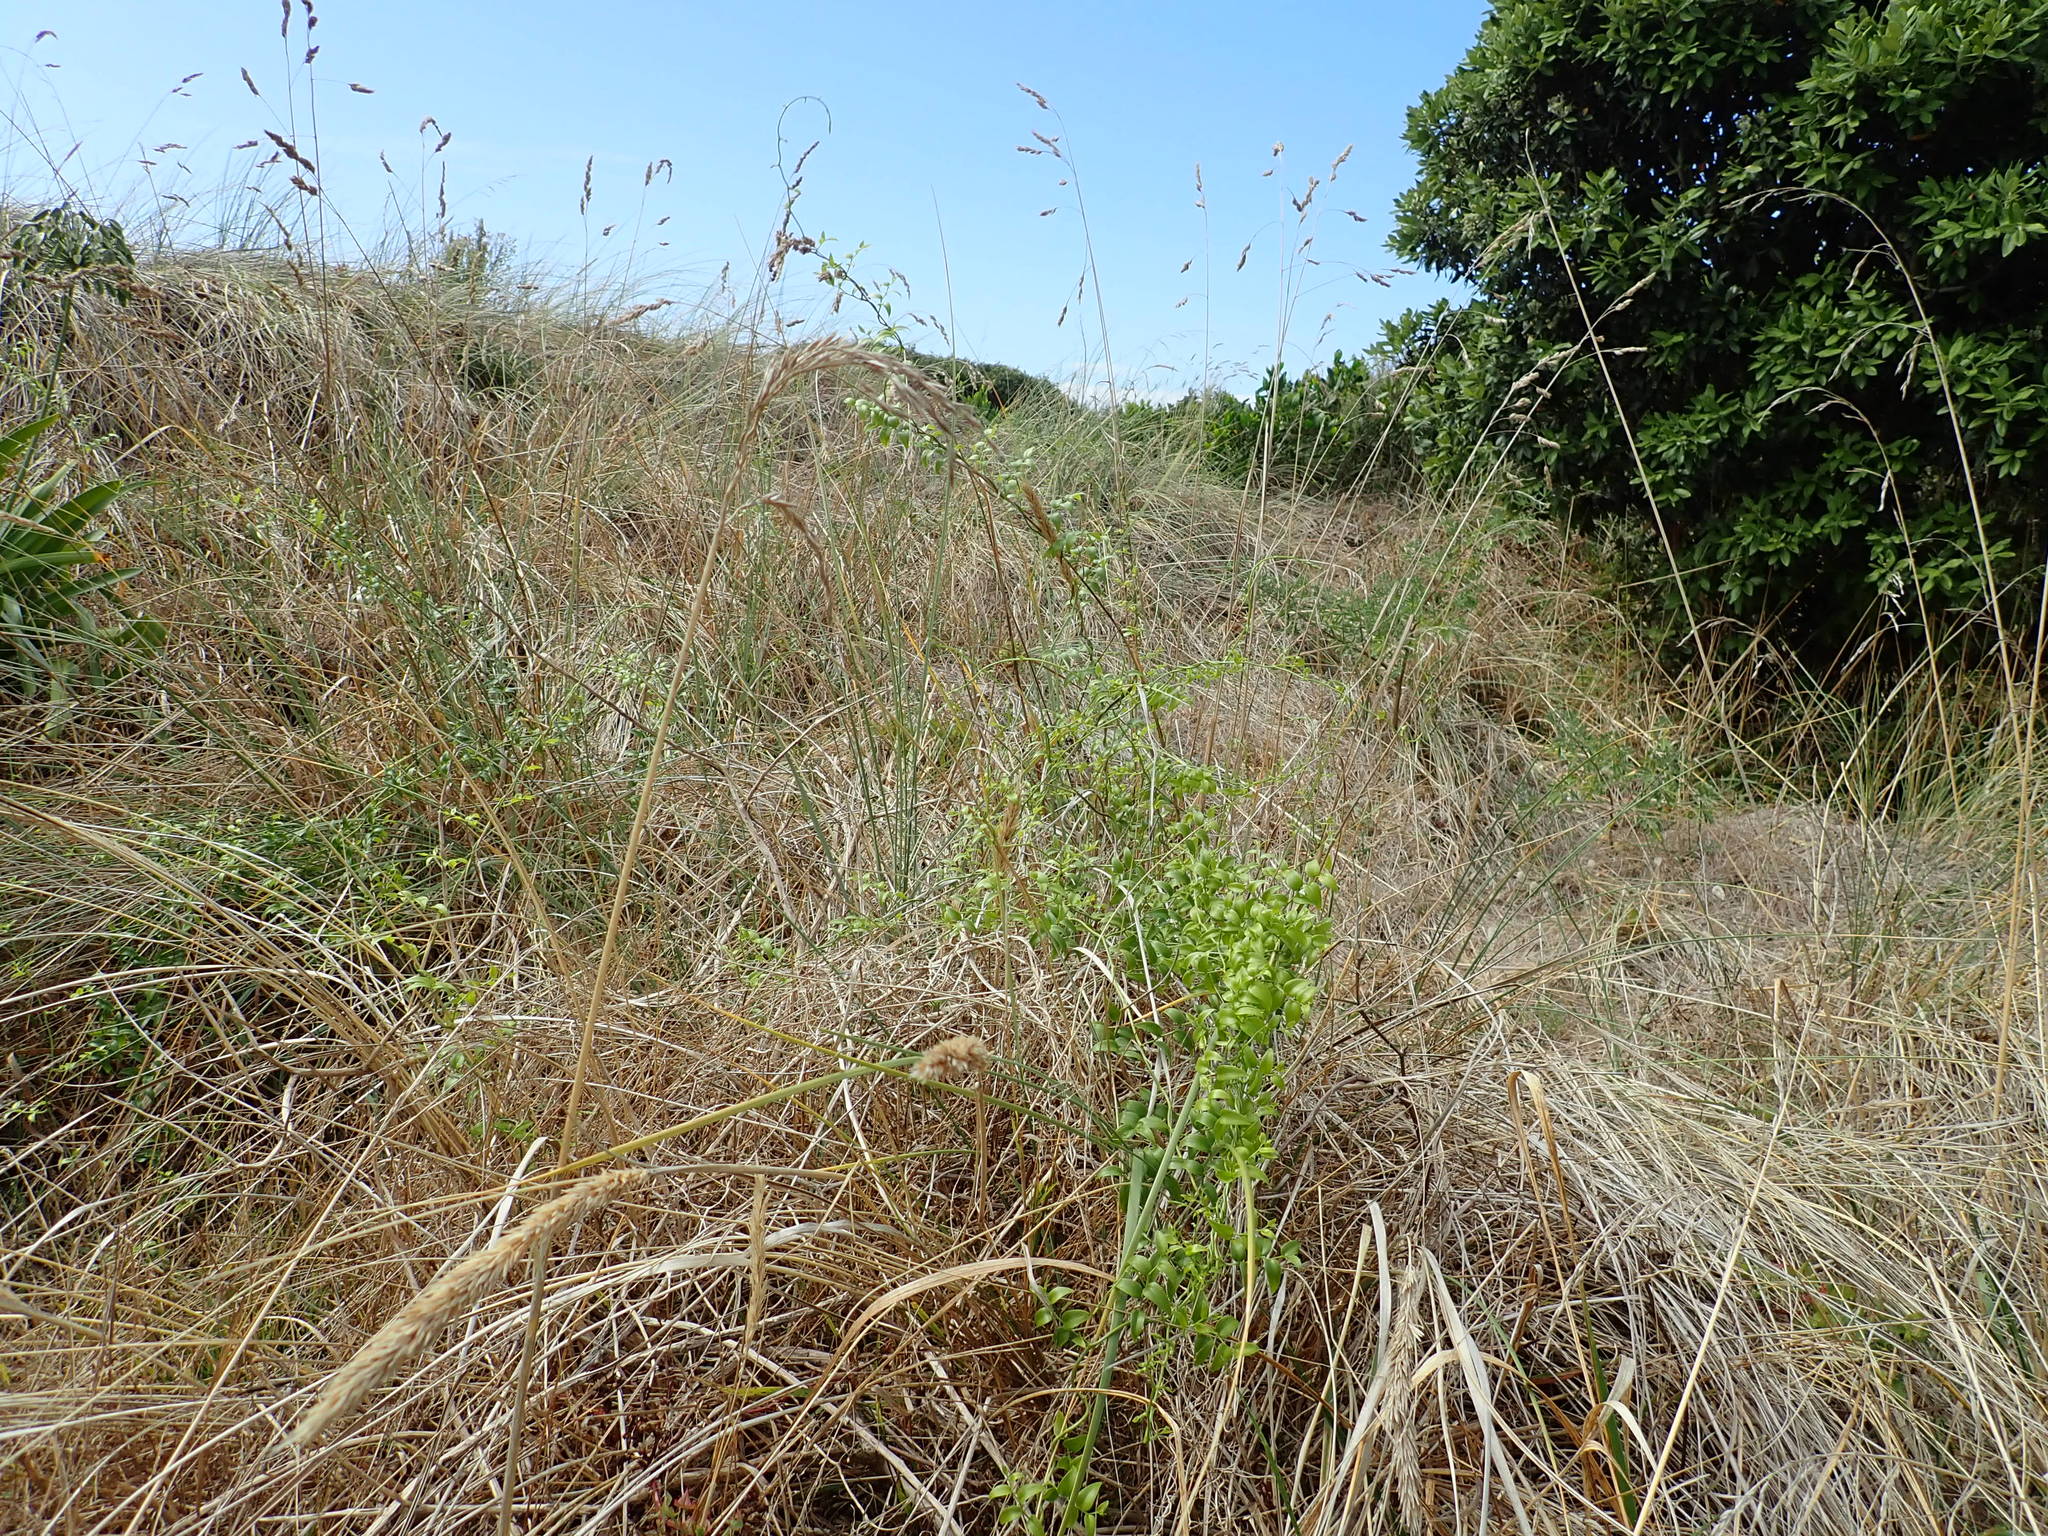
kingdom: Plantae
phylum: Tracheophyta
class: Liliopsida
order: Asparagales
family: Asparagaceae
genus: Asparagus
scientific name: Asparagus asparagoides
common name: African asparagus fern
